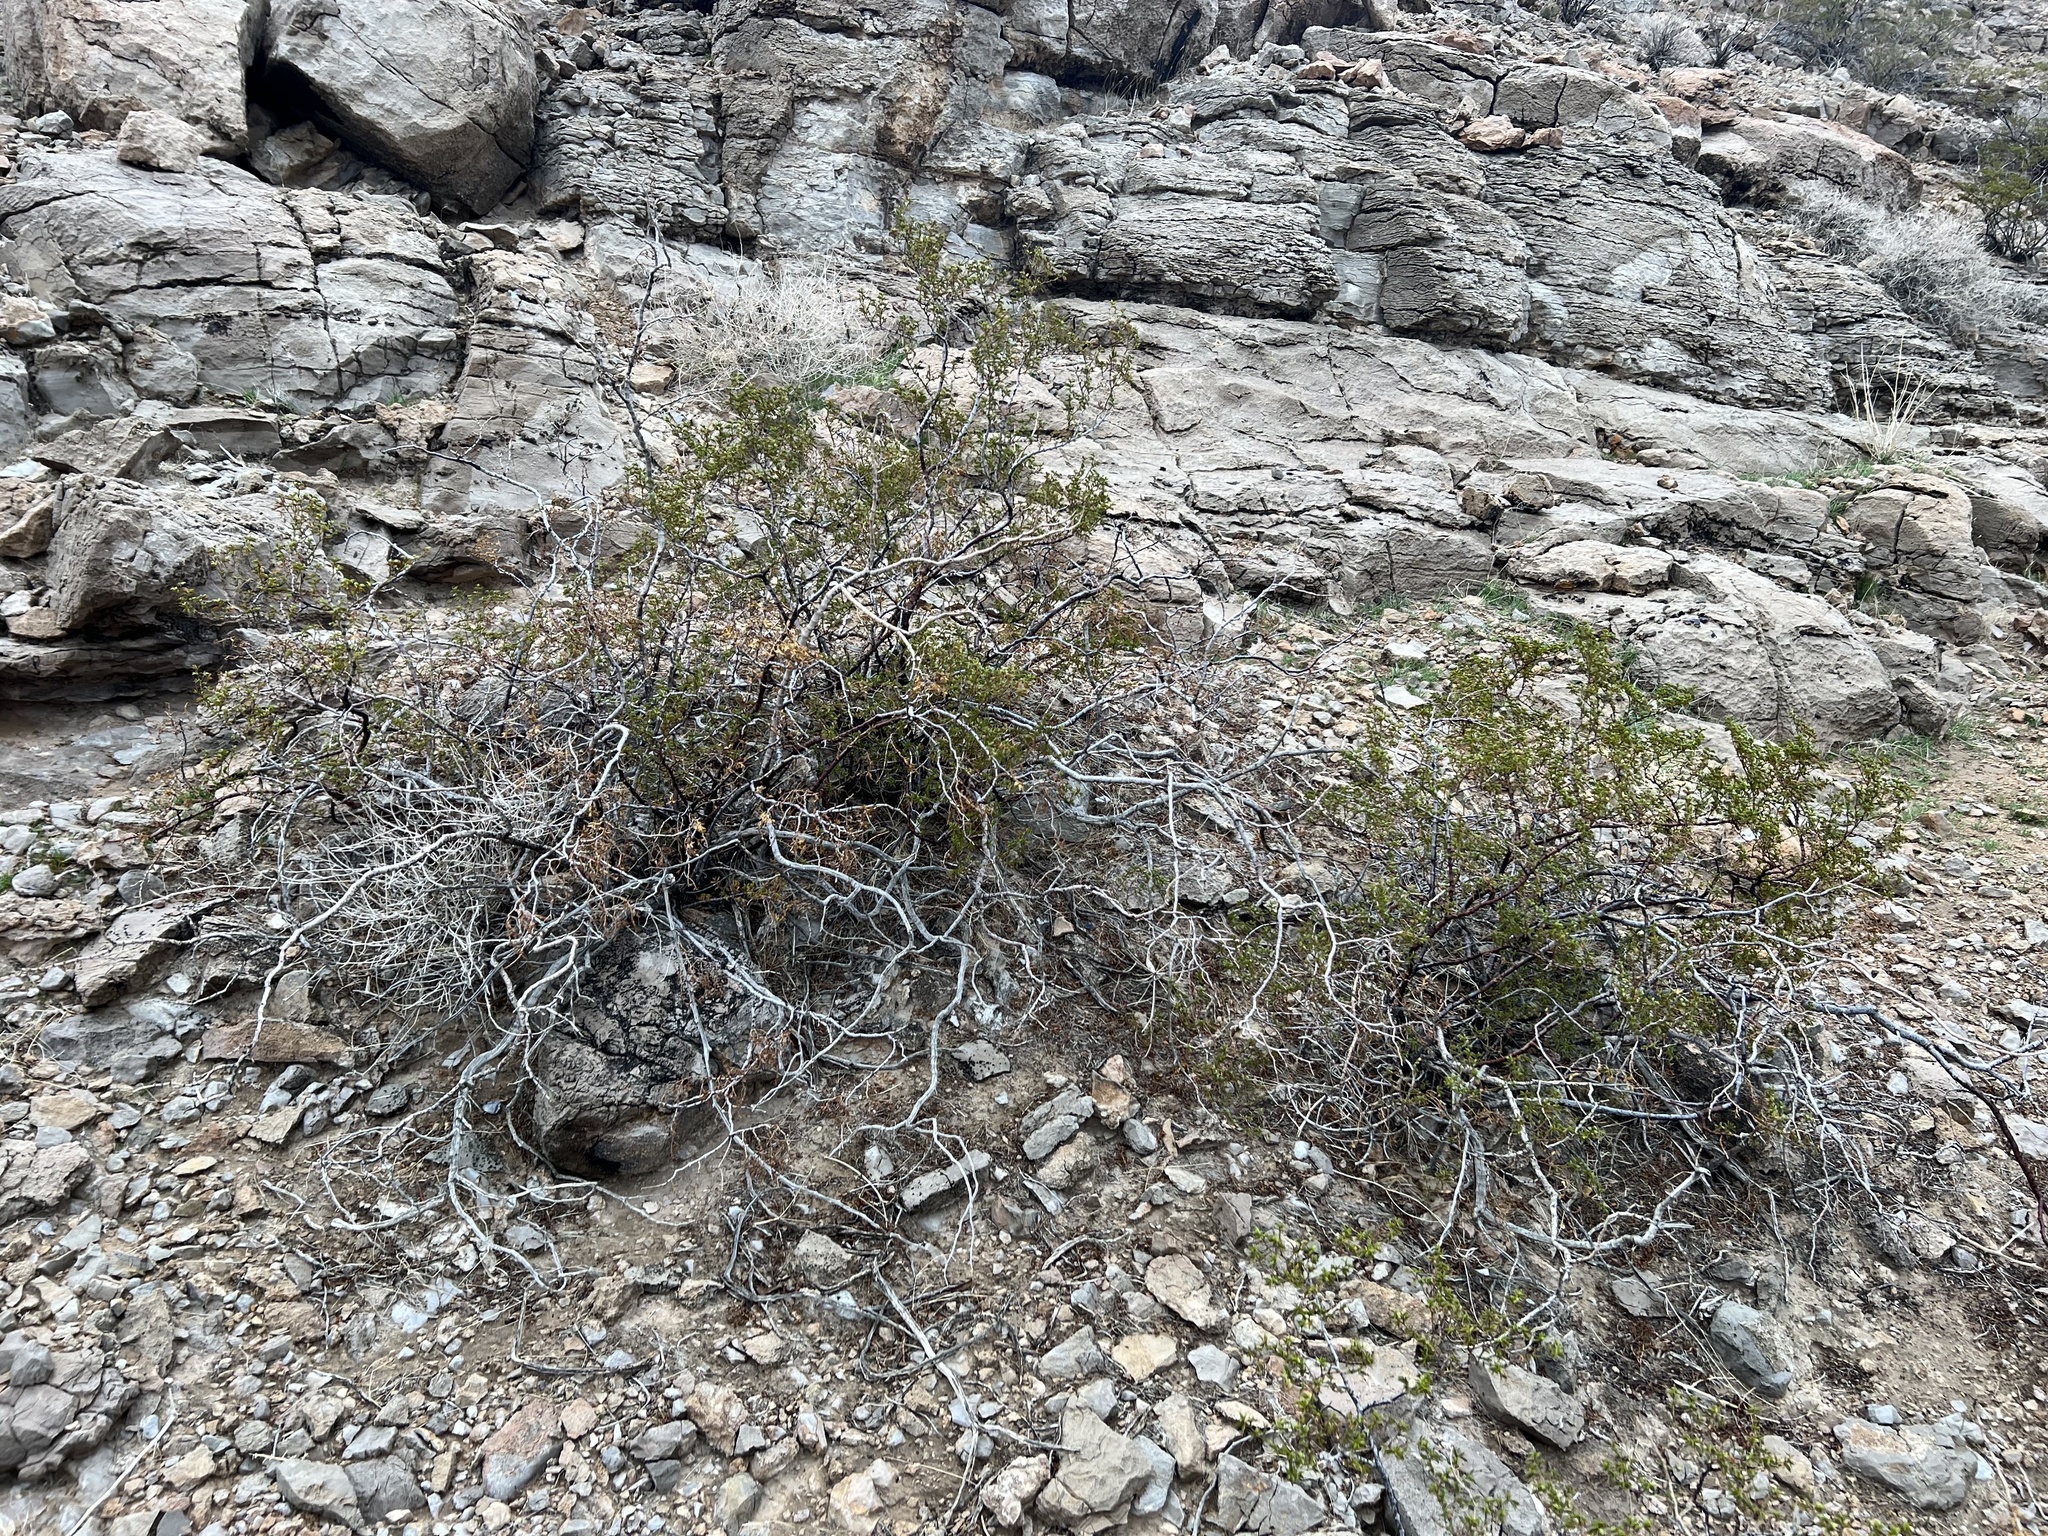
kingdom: Plantae
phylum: Tracheophyta
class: Magnoliopsida
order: Zygophyllales
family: Zygophyllaceae
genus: Larrea
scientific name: Larrea tridentata
